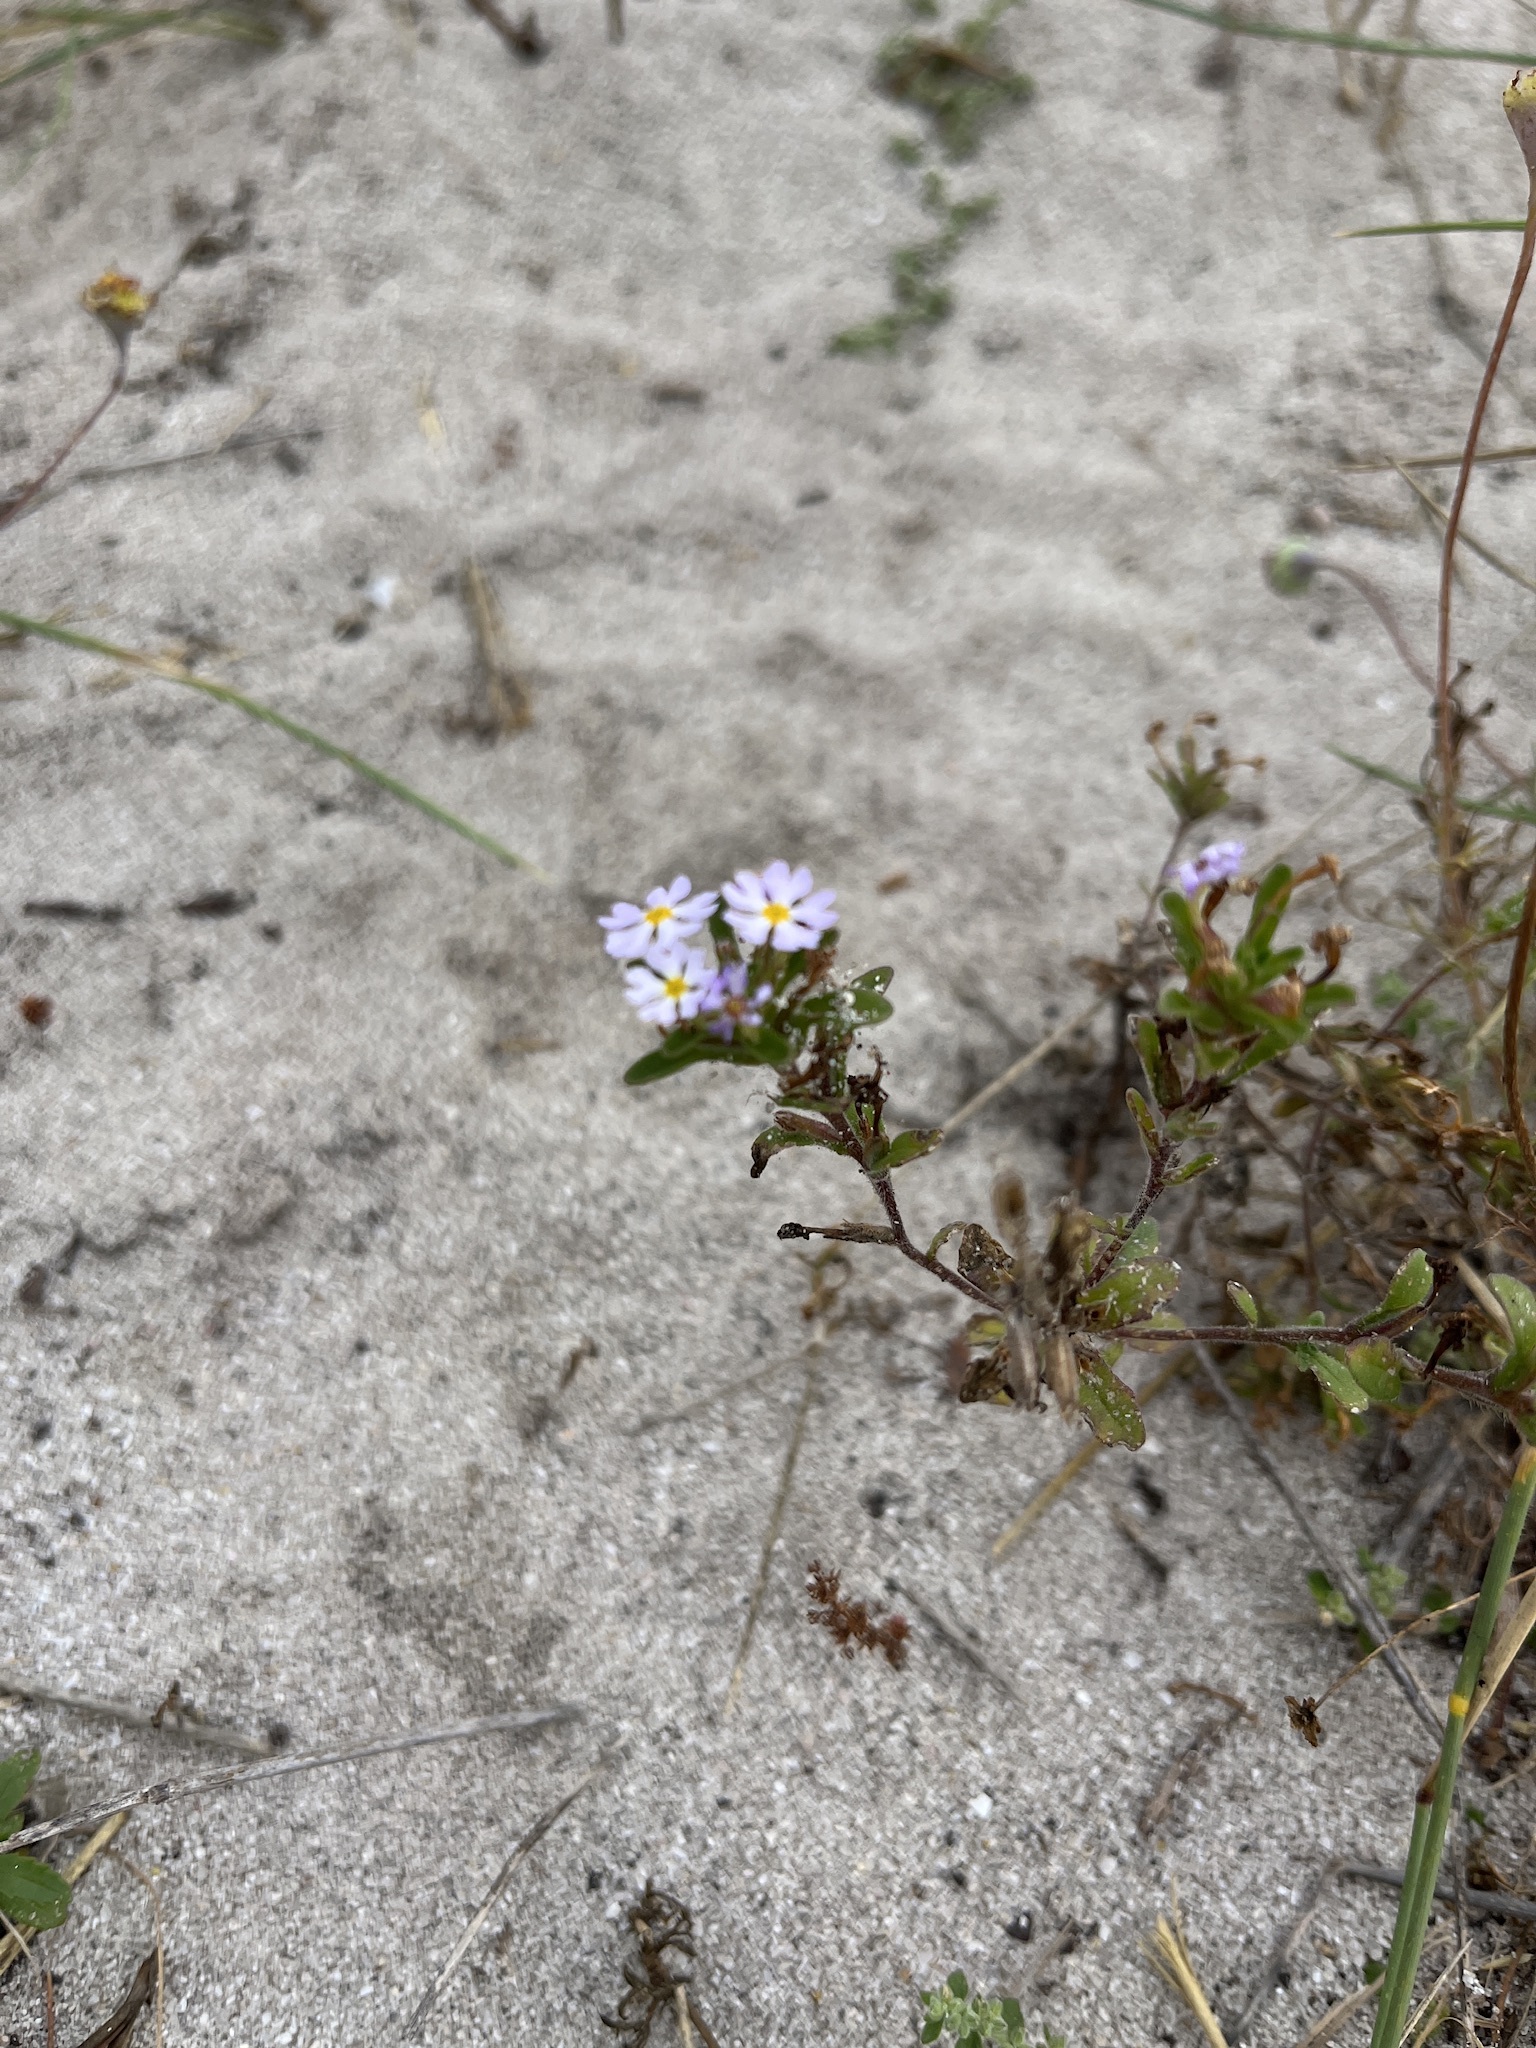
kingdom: Plantae
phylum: Tracheophyta
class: Magnoliopsida
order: Lamiales
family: Scrophulariaceae
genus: Zaluzianskya
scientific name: Zaluzianskya villosa
